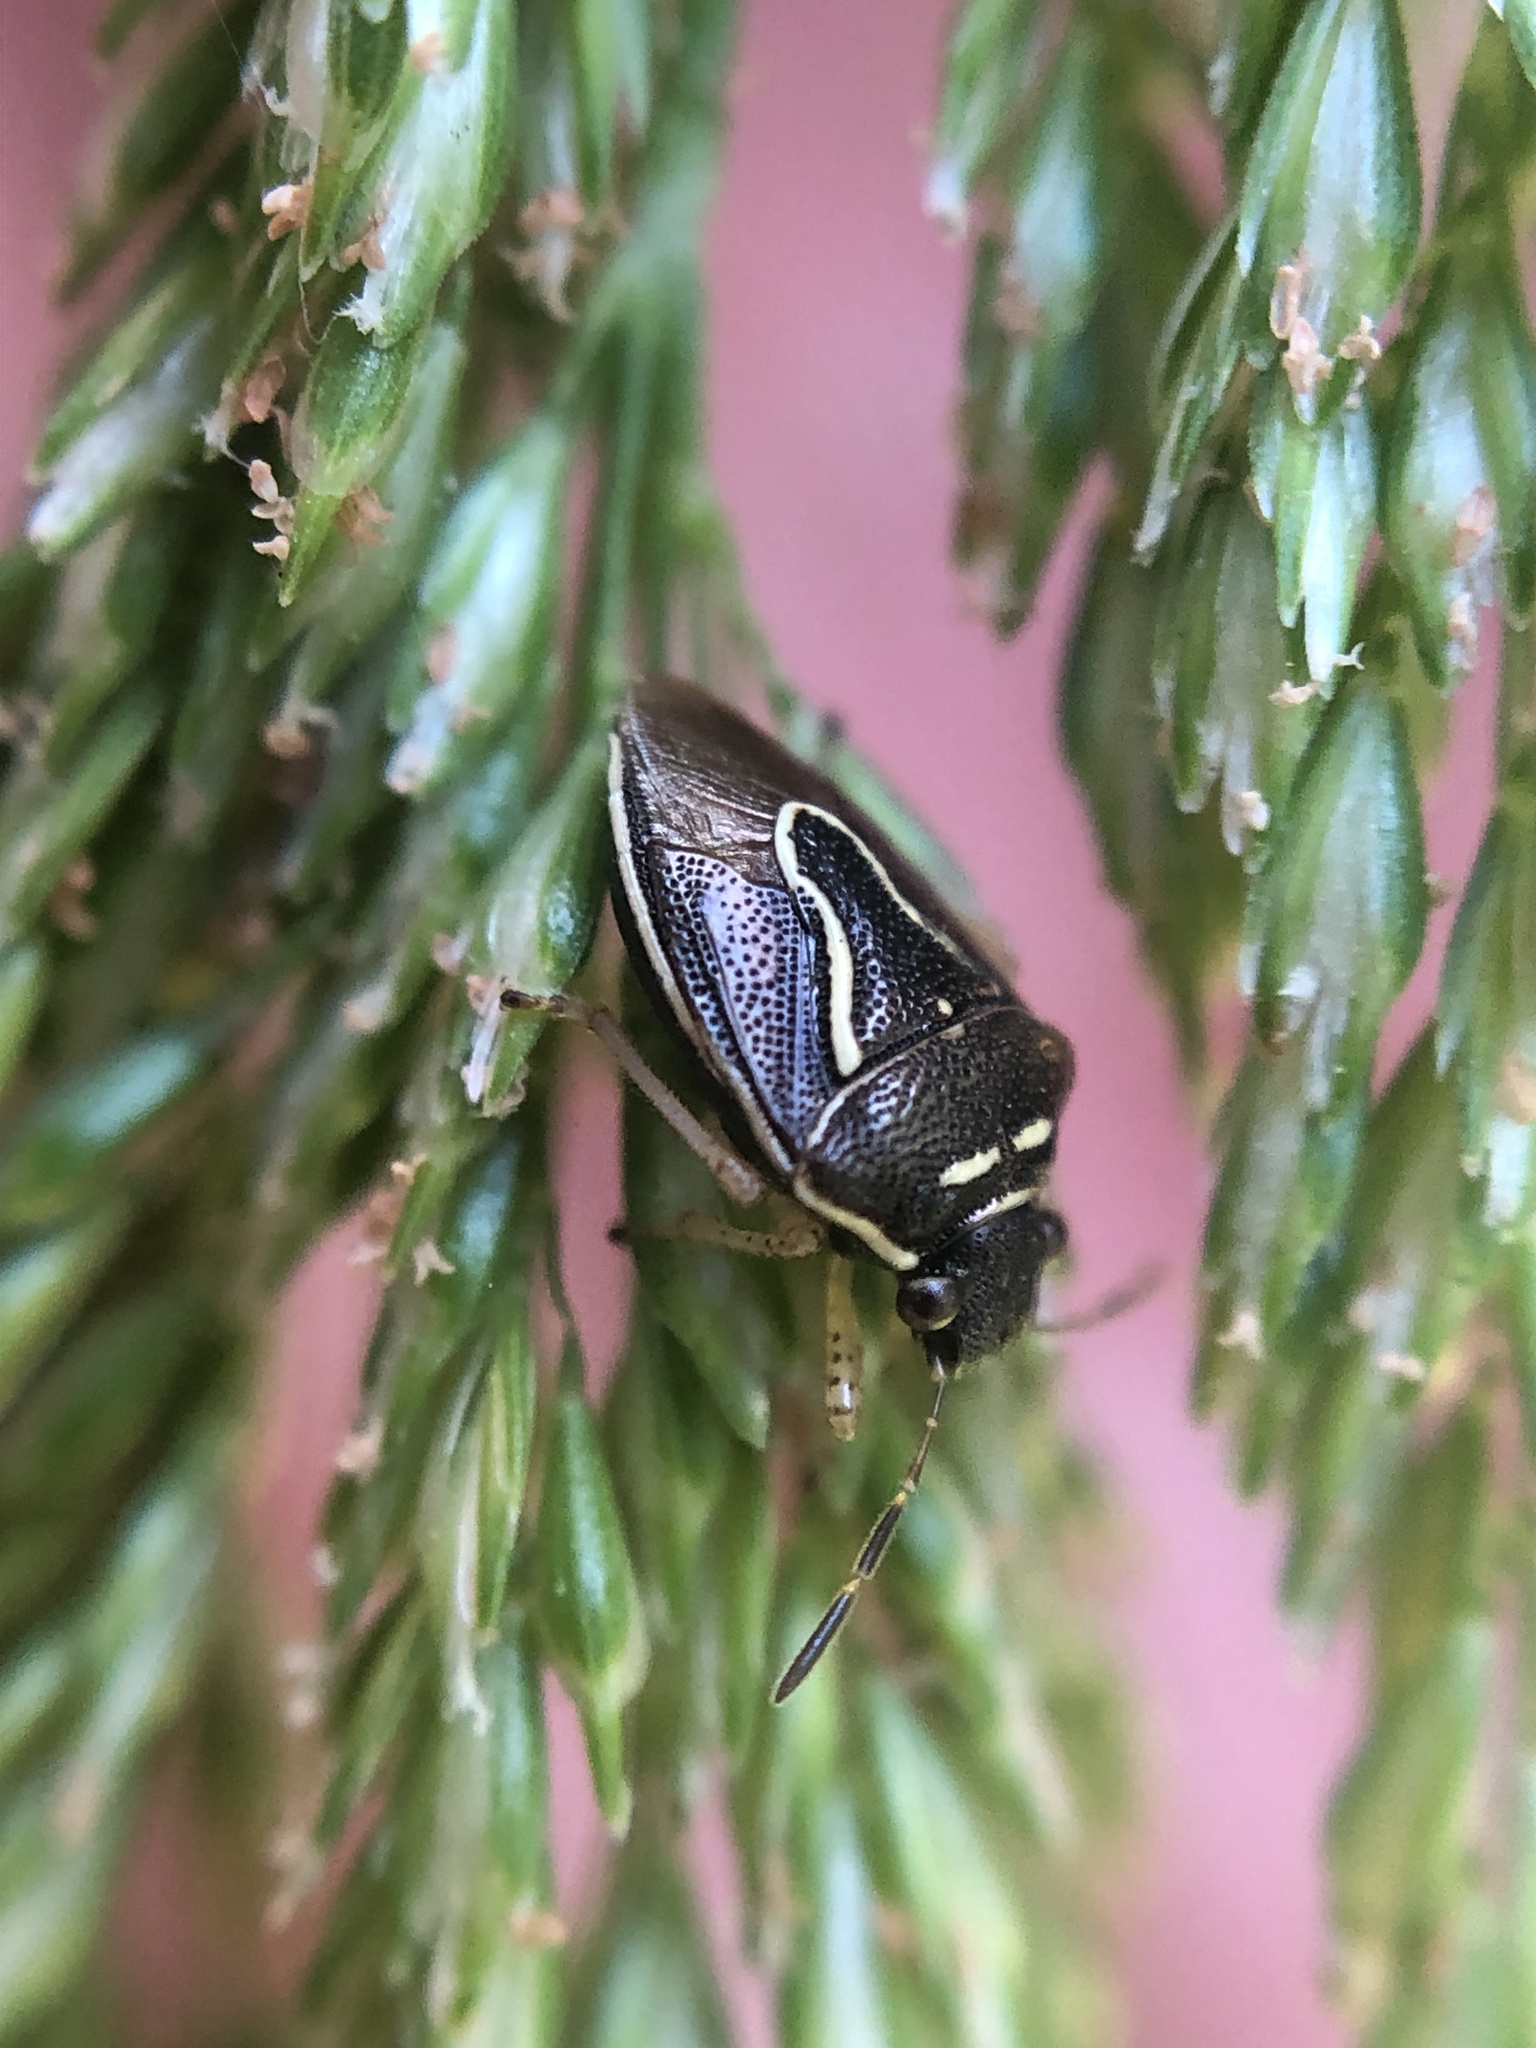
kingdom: Animalia
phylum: Arthropoda
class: Insecta
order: Hemiptera
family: Pentatomidae
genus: Mormidea
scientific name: Mormidea lugens
